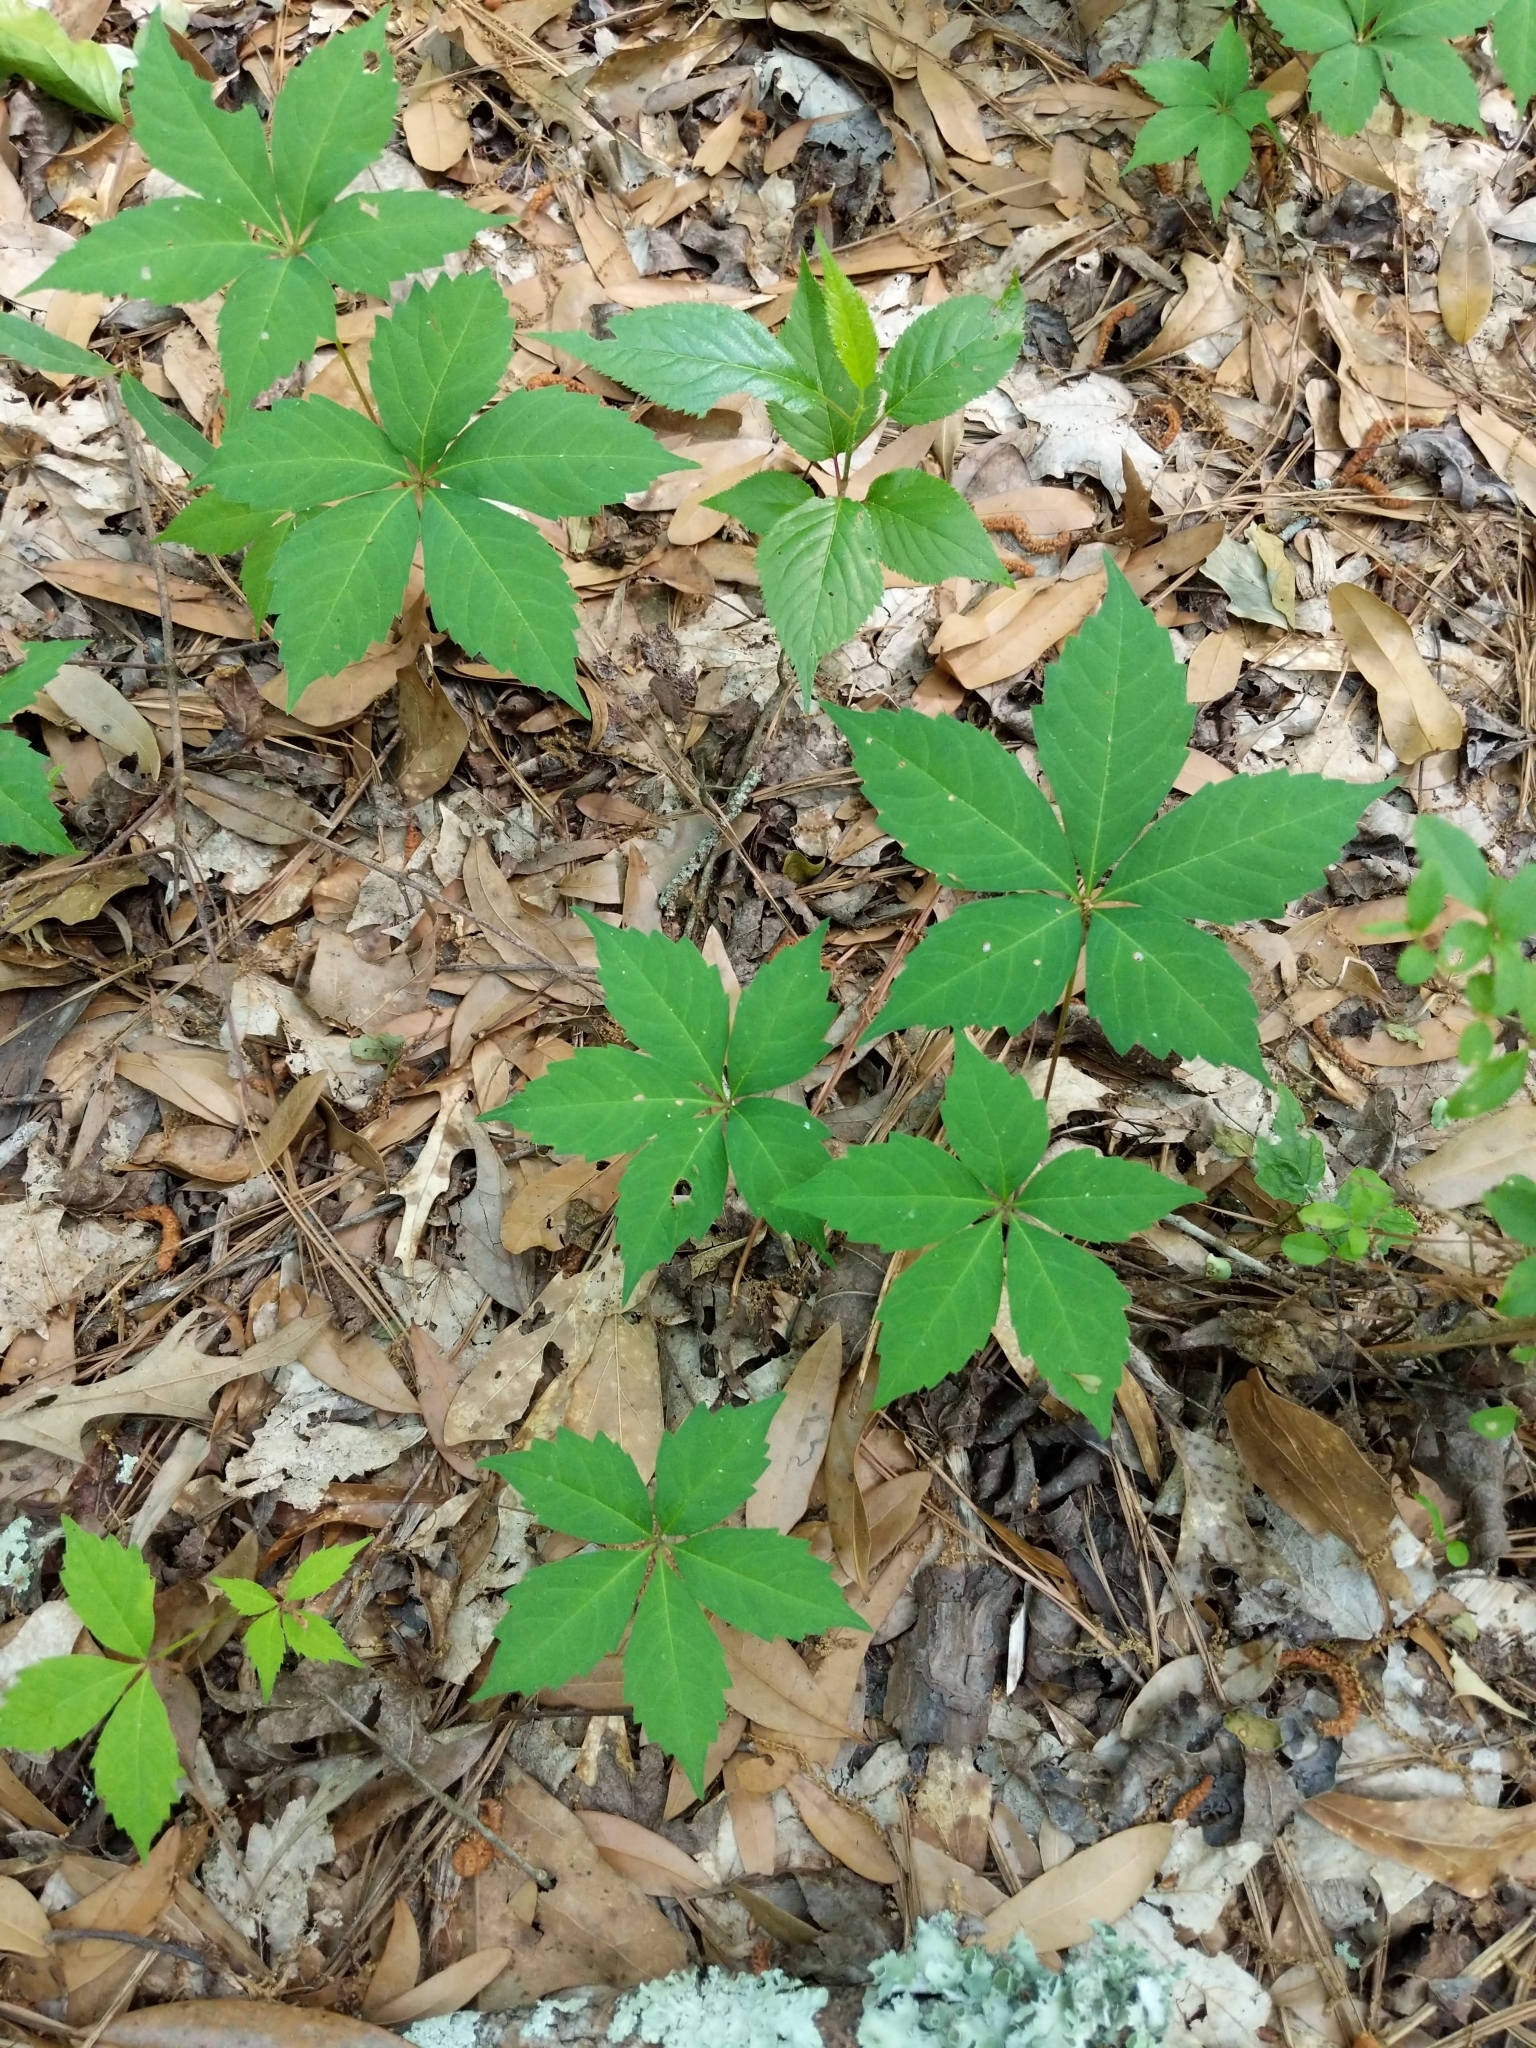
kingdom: Plantae
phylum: Tracheophyta
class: Magnoliopsida
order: Vitales
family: Vitaceae
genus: Parthenocissus
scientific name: Parthenocissus quinquefolia
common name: Virginia-creeper
